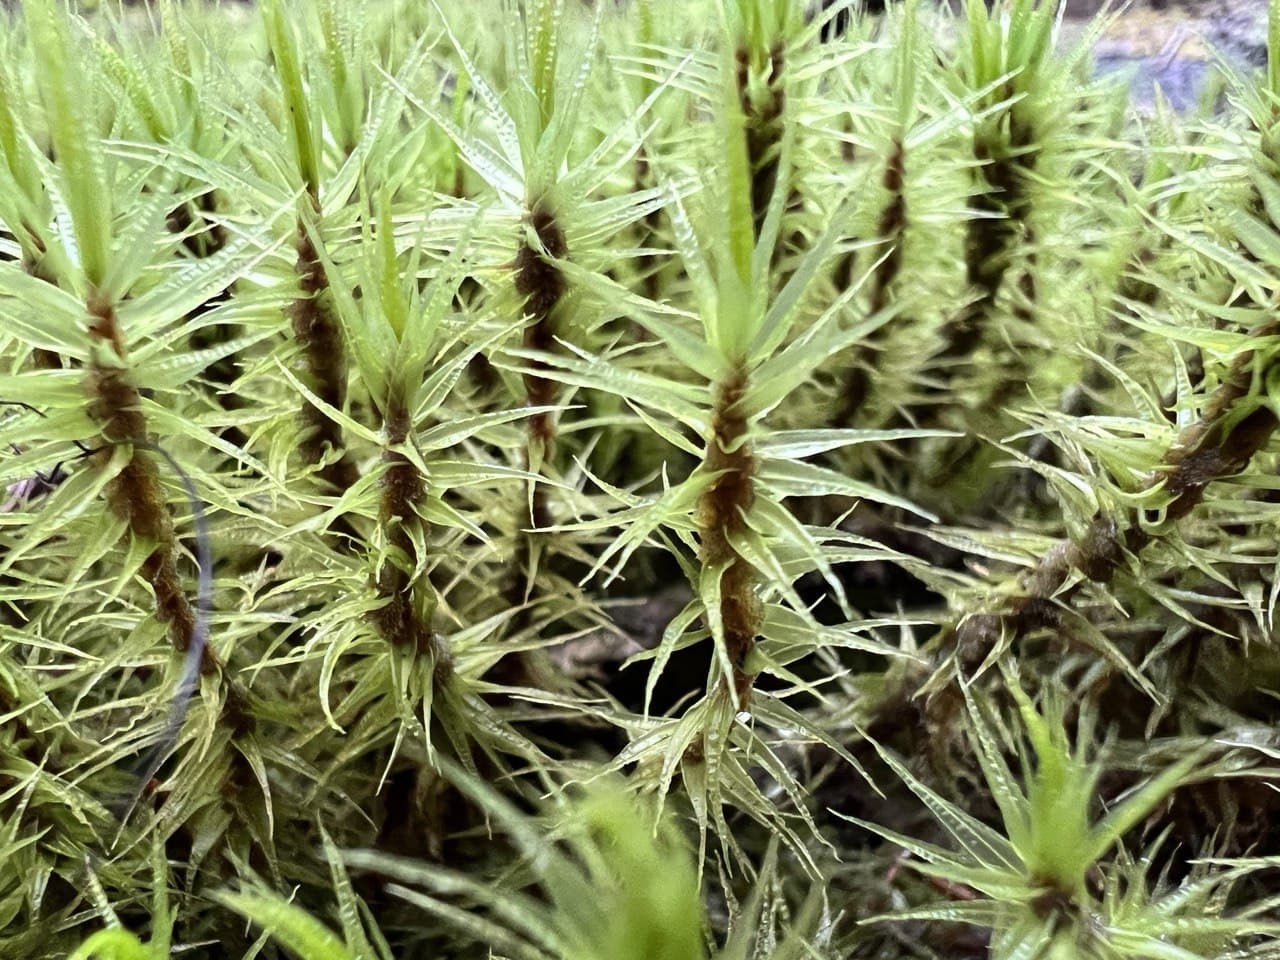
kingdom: Plantae
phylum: Bryophyta
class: Bryopsida
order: Dicranales
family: Dicranaceae
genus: Dicranum
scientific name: Dicranum polysetum
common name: Rugose fork-moss
